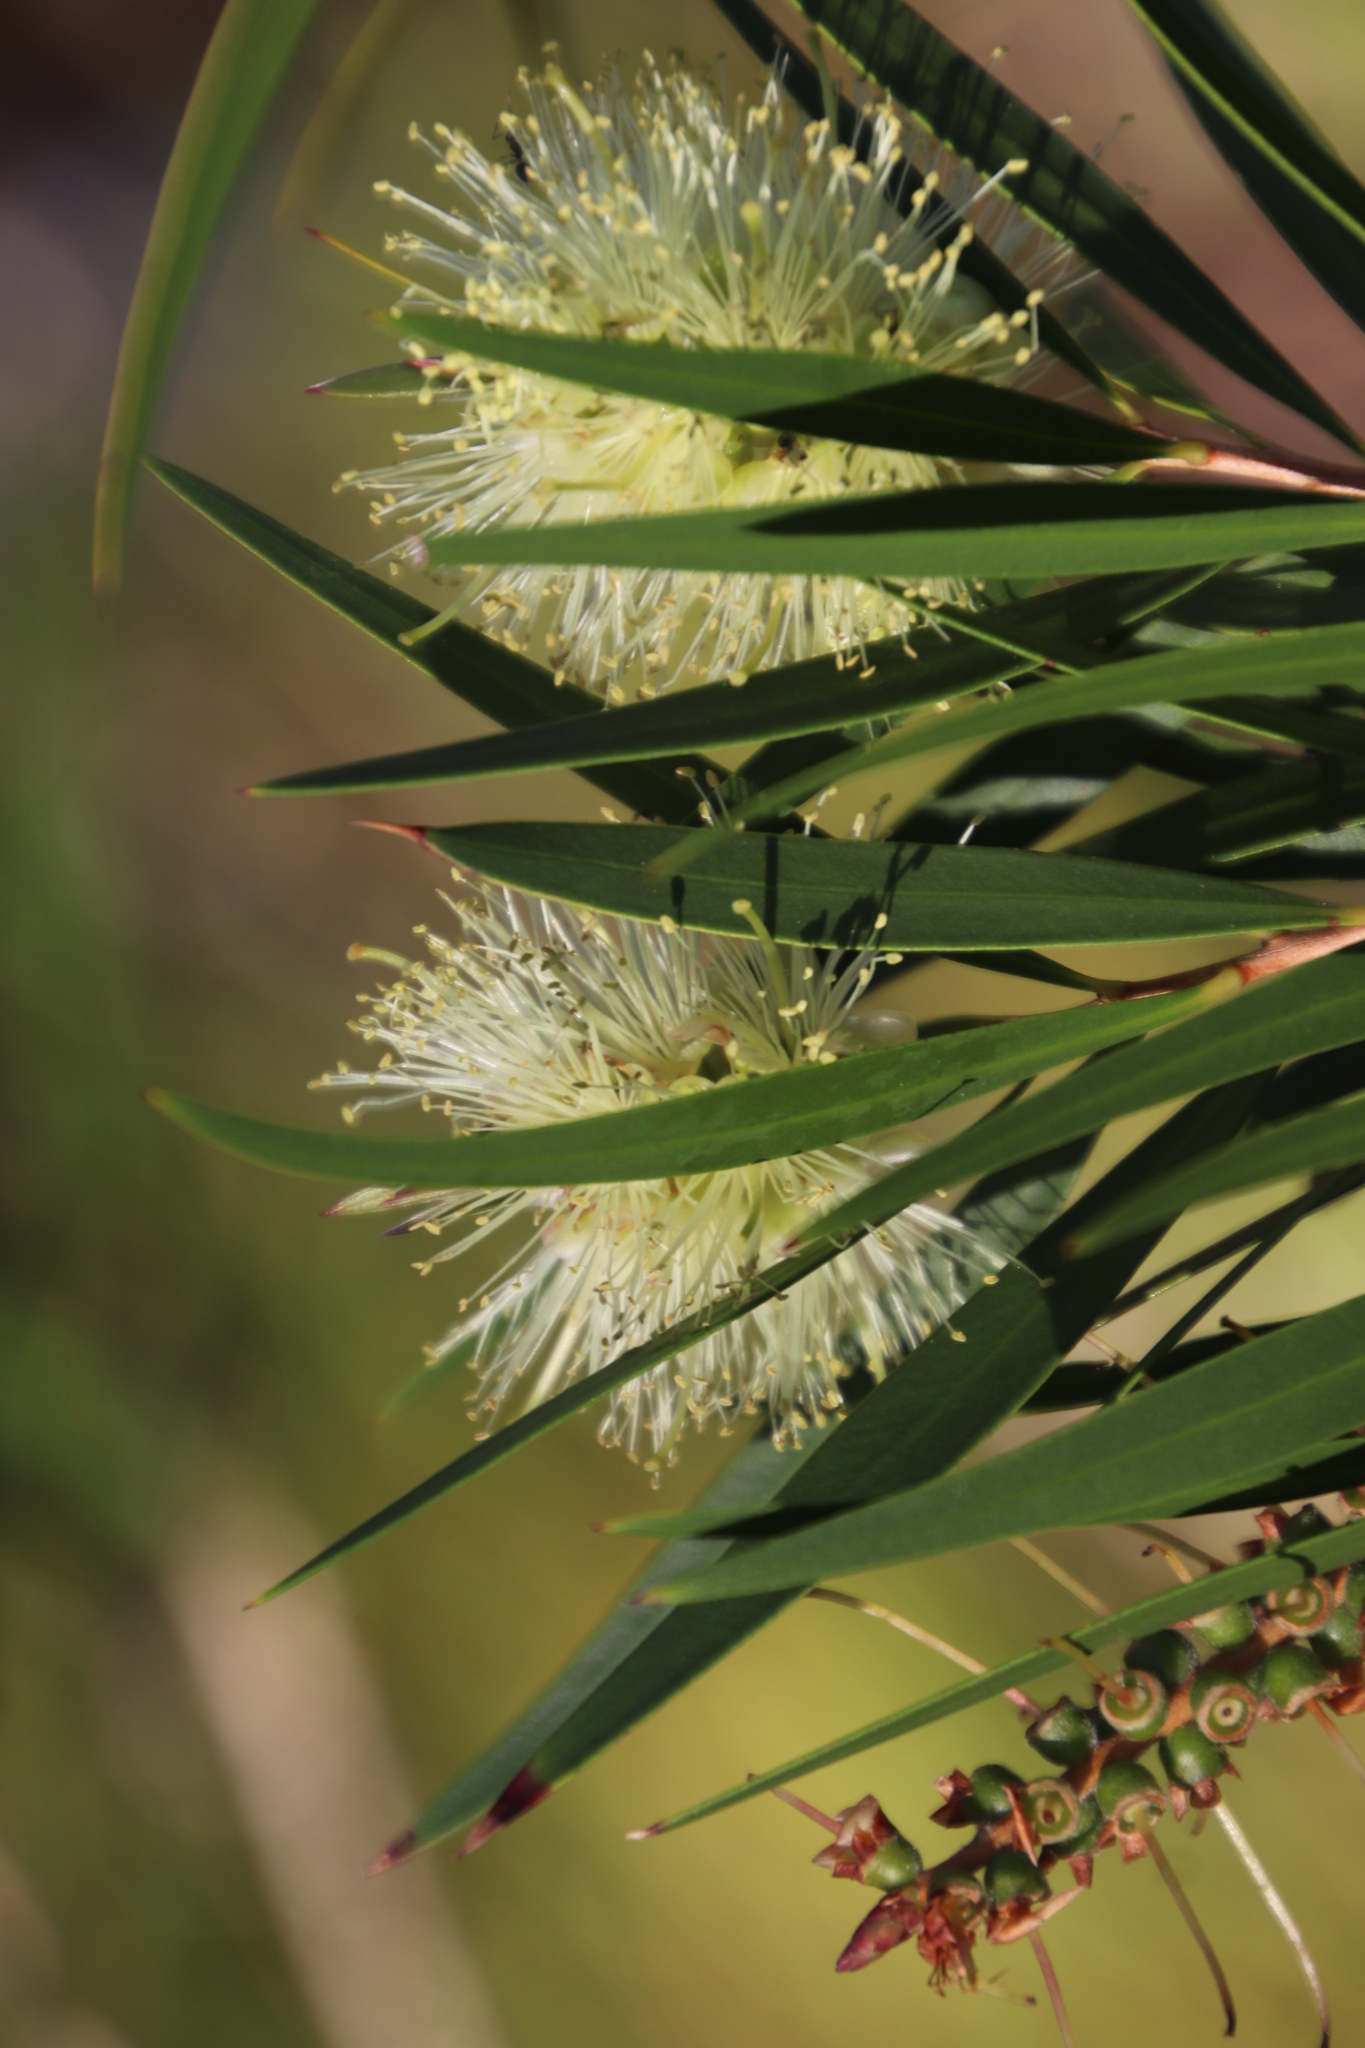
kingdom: Plantae
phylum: Tracheophyta
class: Magnoliopsida
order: Myrtales
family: Myrtaceae
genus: Callistemon
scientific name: Callistemon salignus
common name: White bottlebrush
